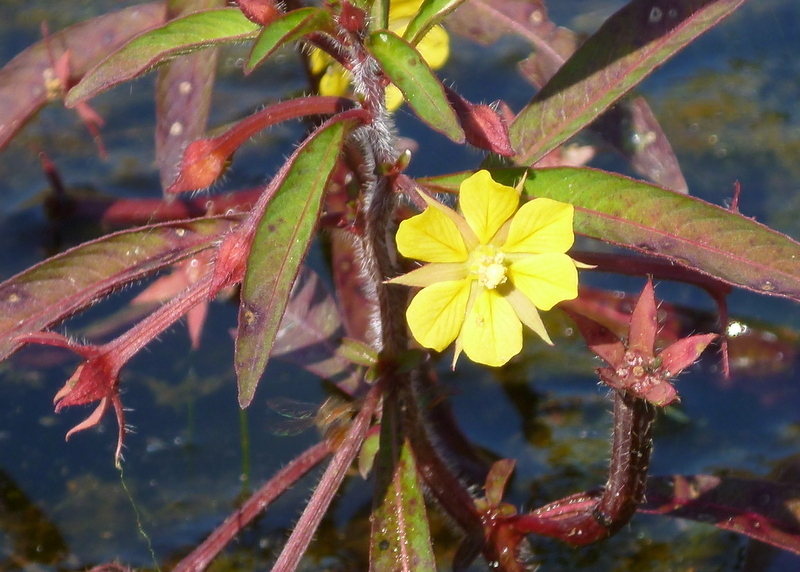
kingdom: Plantae
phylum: Tracheophyta
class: Magnoliopsida
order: Myrtales
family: Onagraceae
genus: Ludwigia
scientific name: Ludwigia leptocarpa
